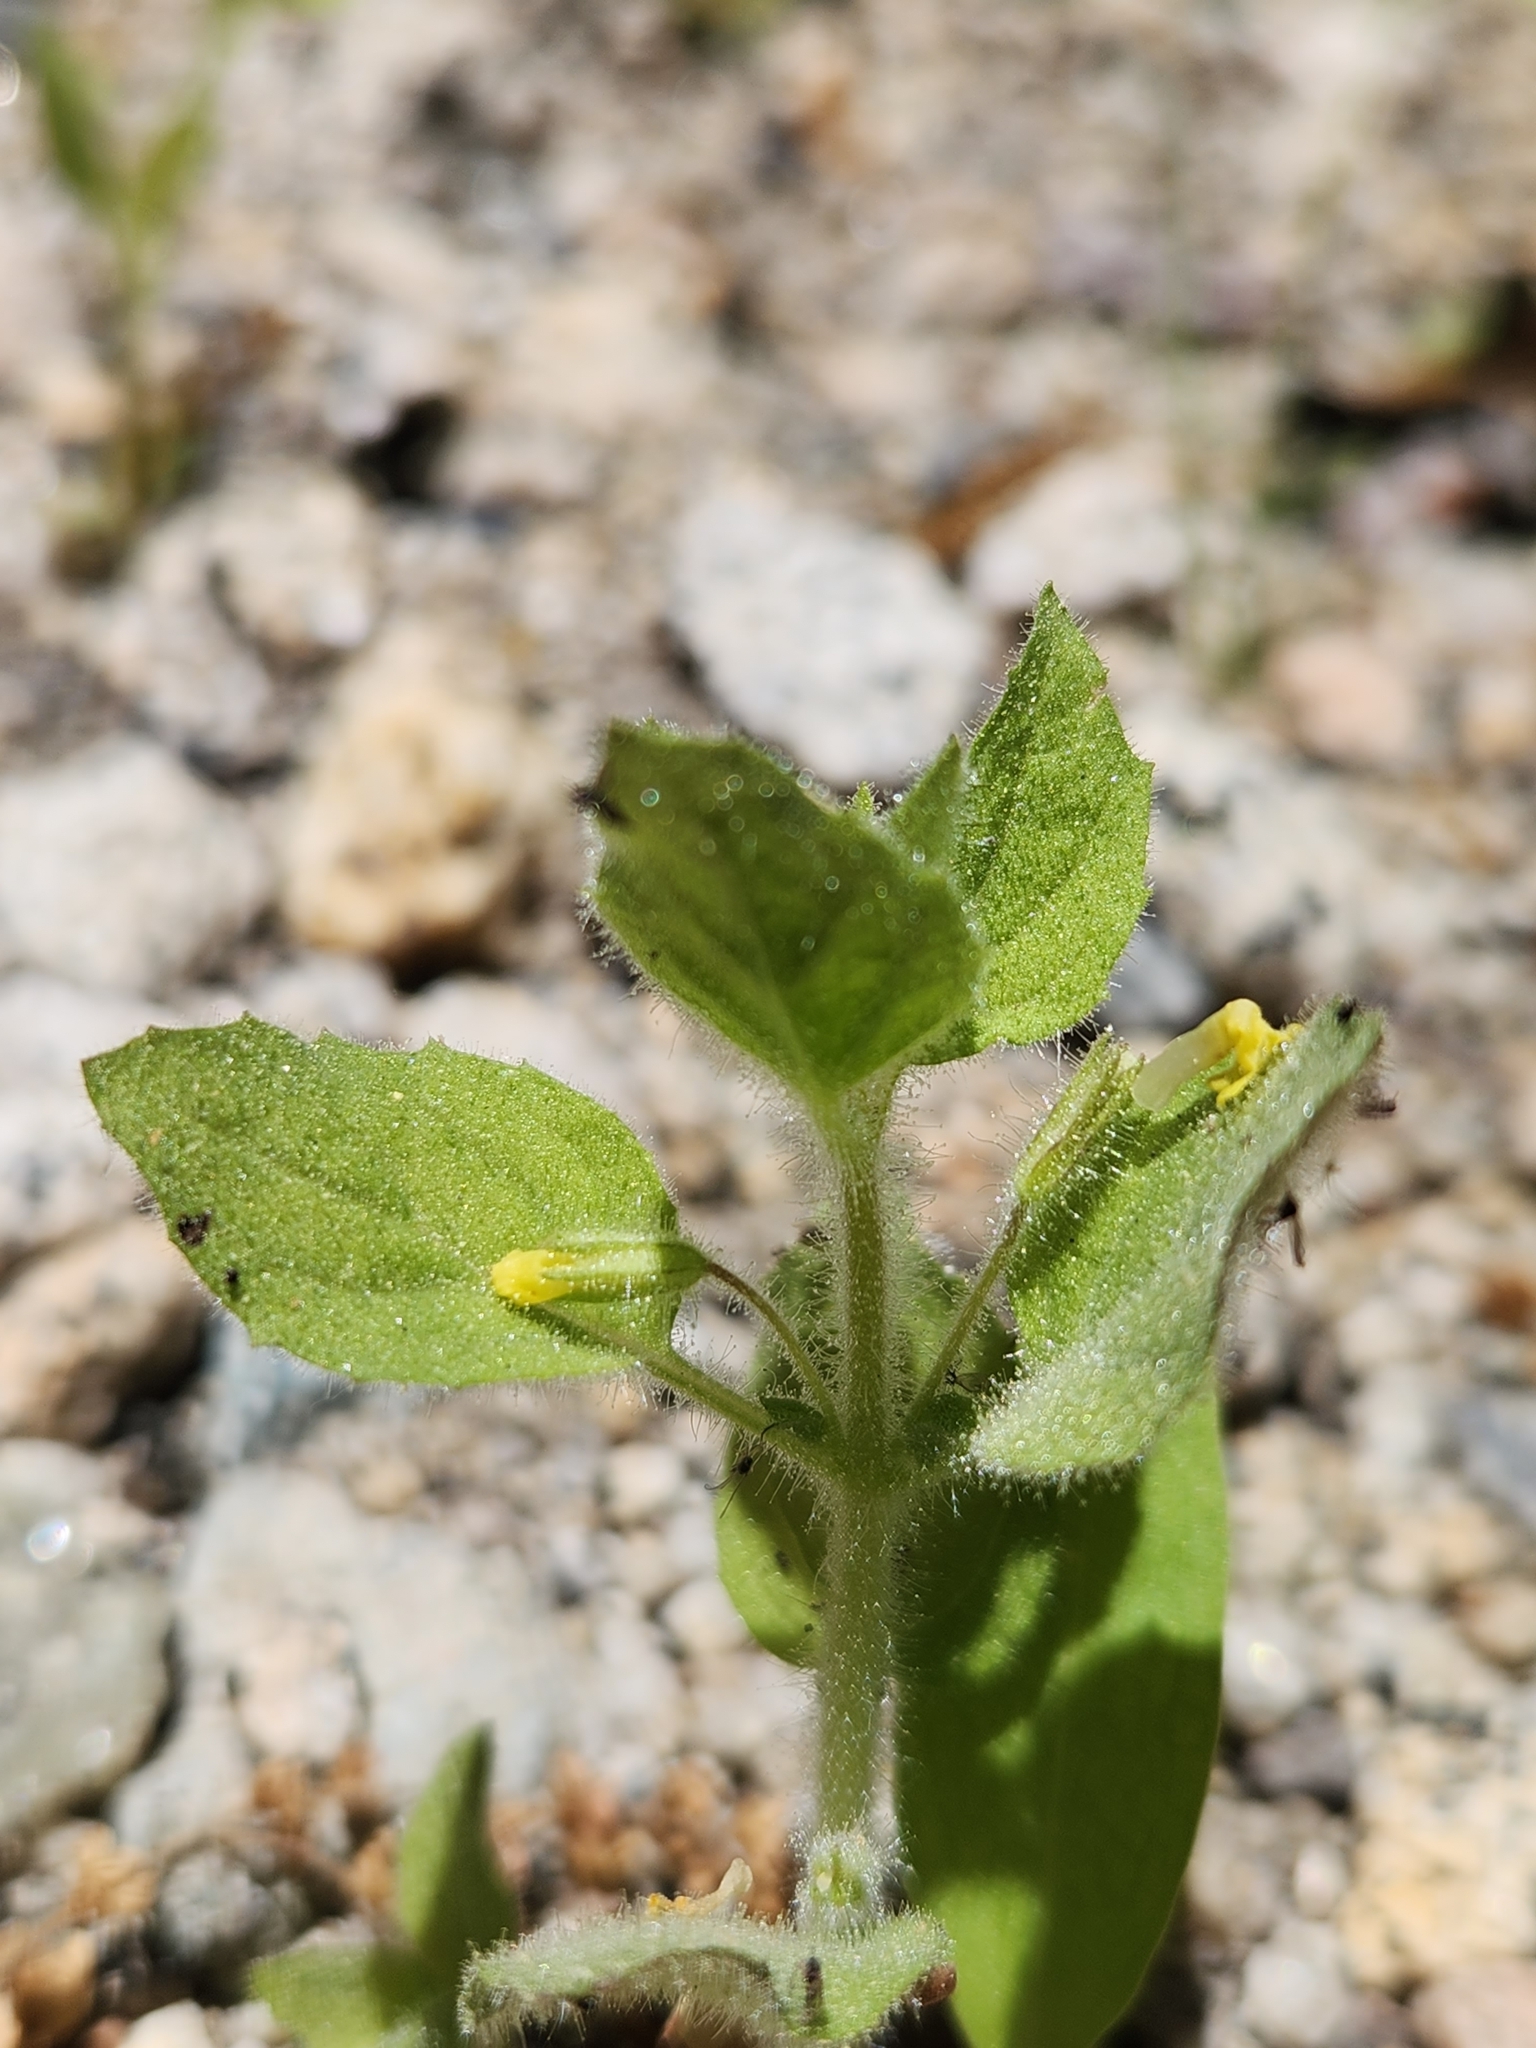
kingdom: Plantae
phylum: Tracheophyta
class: Magnoliopsida
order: Lamiales
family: Phrymaceae
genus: Erythranthe
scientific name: Erythranthe floribunda
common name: Floriferous monkeyflower
